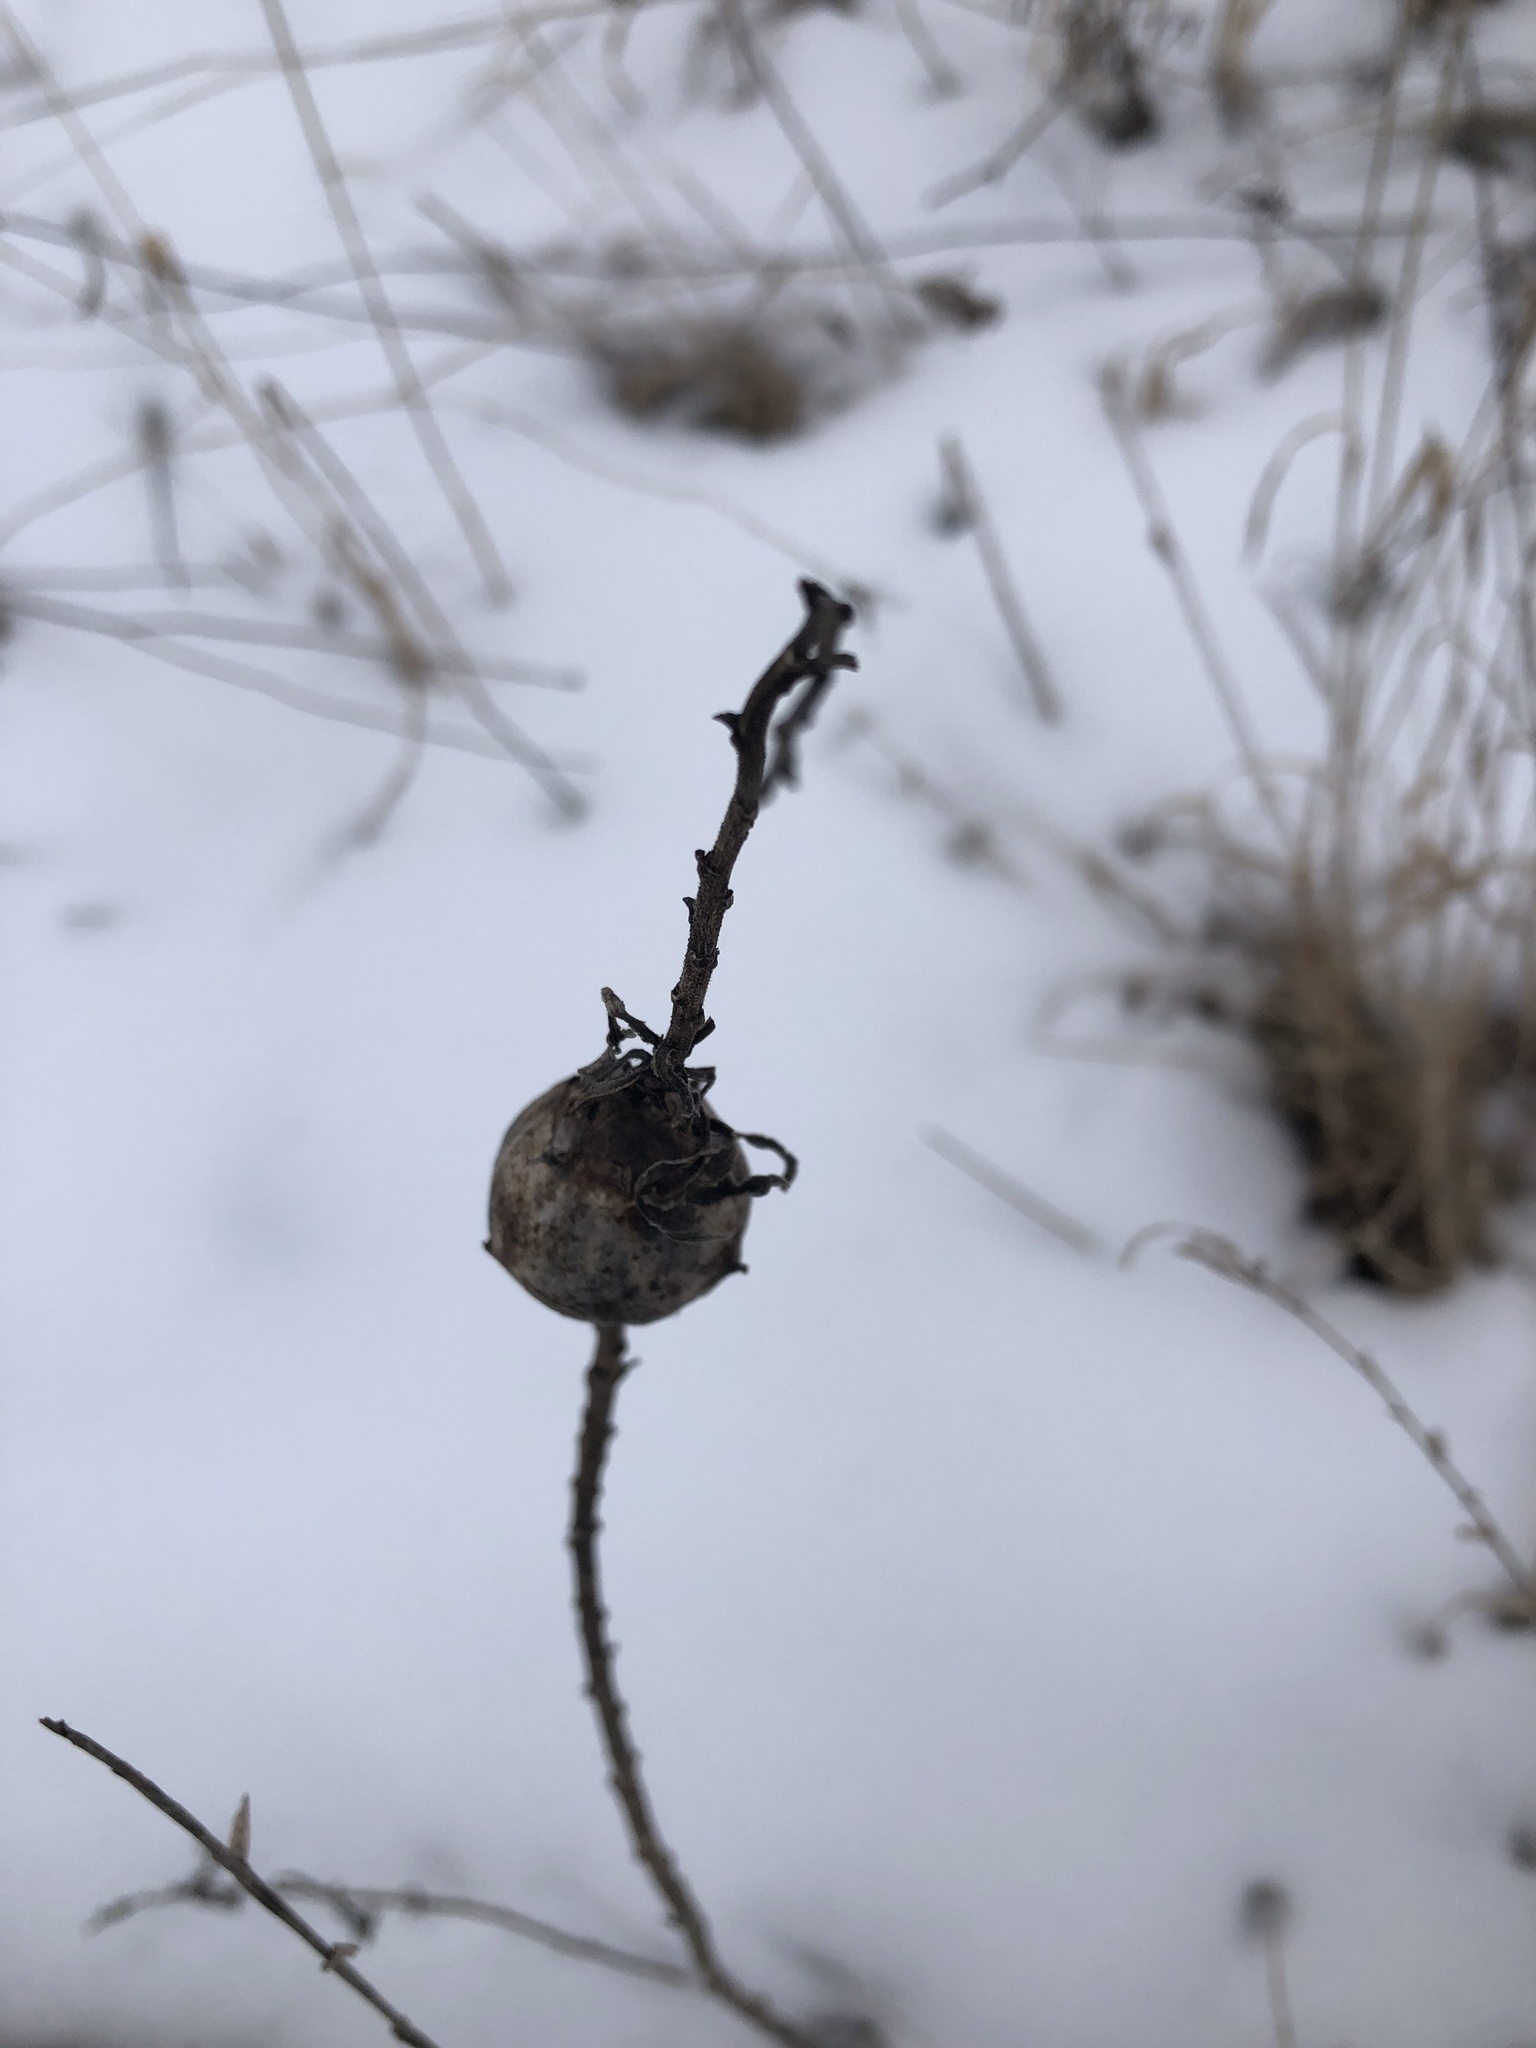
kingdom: Animalia
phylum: Arthropoda
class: Insecta
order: Diptera
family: Tephritidae
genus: Eurosta
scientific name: Eurosta solidaginis
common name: Goldenrod gall fly
